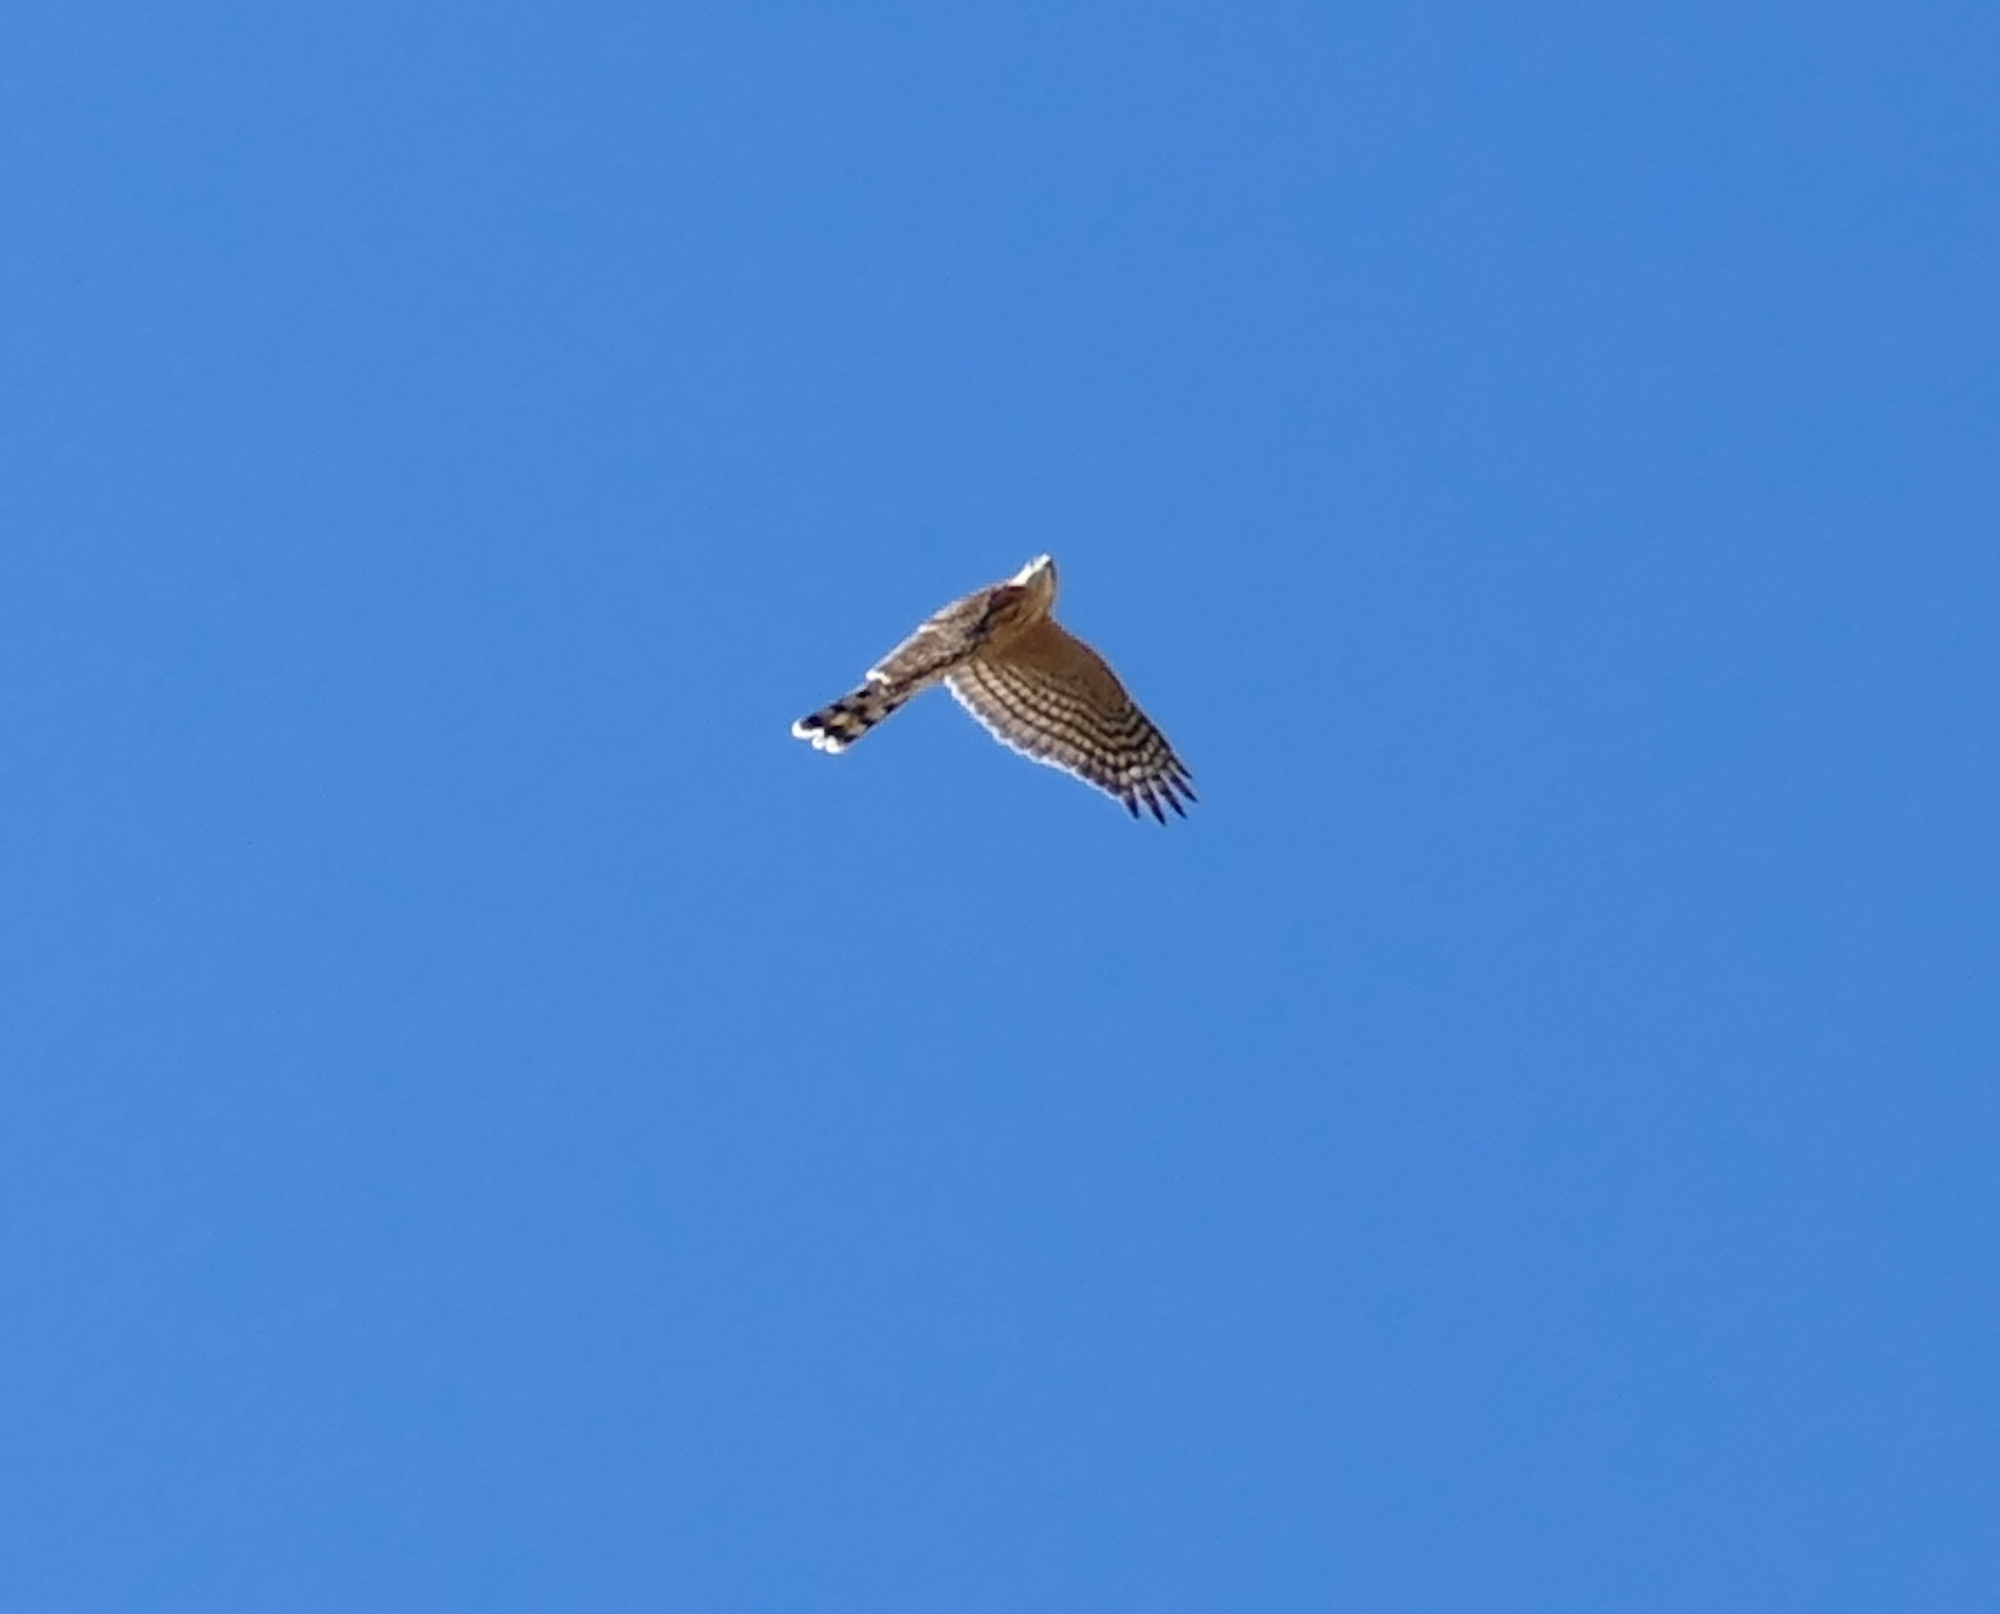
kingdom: Animalia
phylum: Chordata
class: Aves
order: Accipitriformes
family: Accipitridae
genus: Accipiter
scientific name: Accipiter striatus
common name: Sharp-shinned hawk
